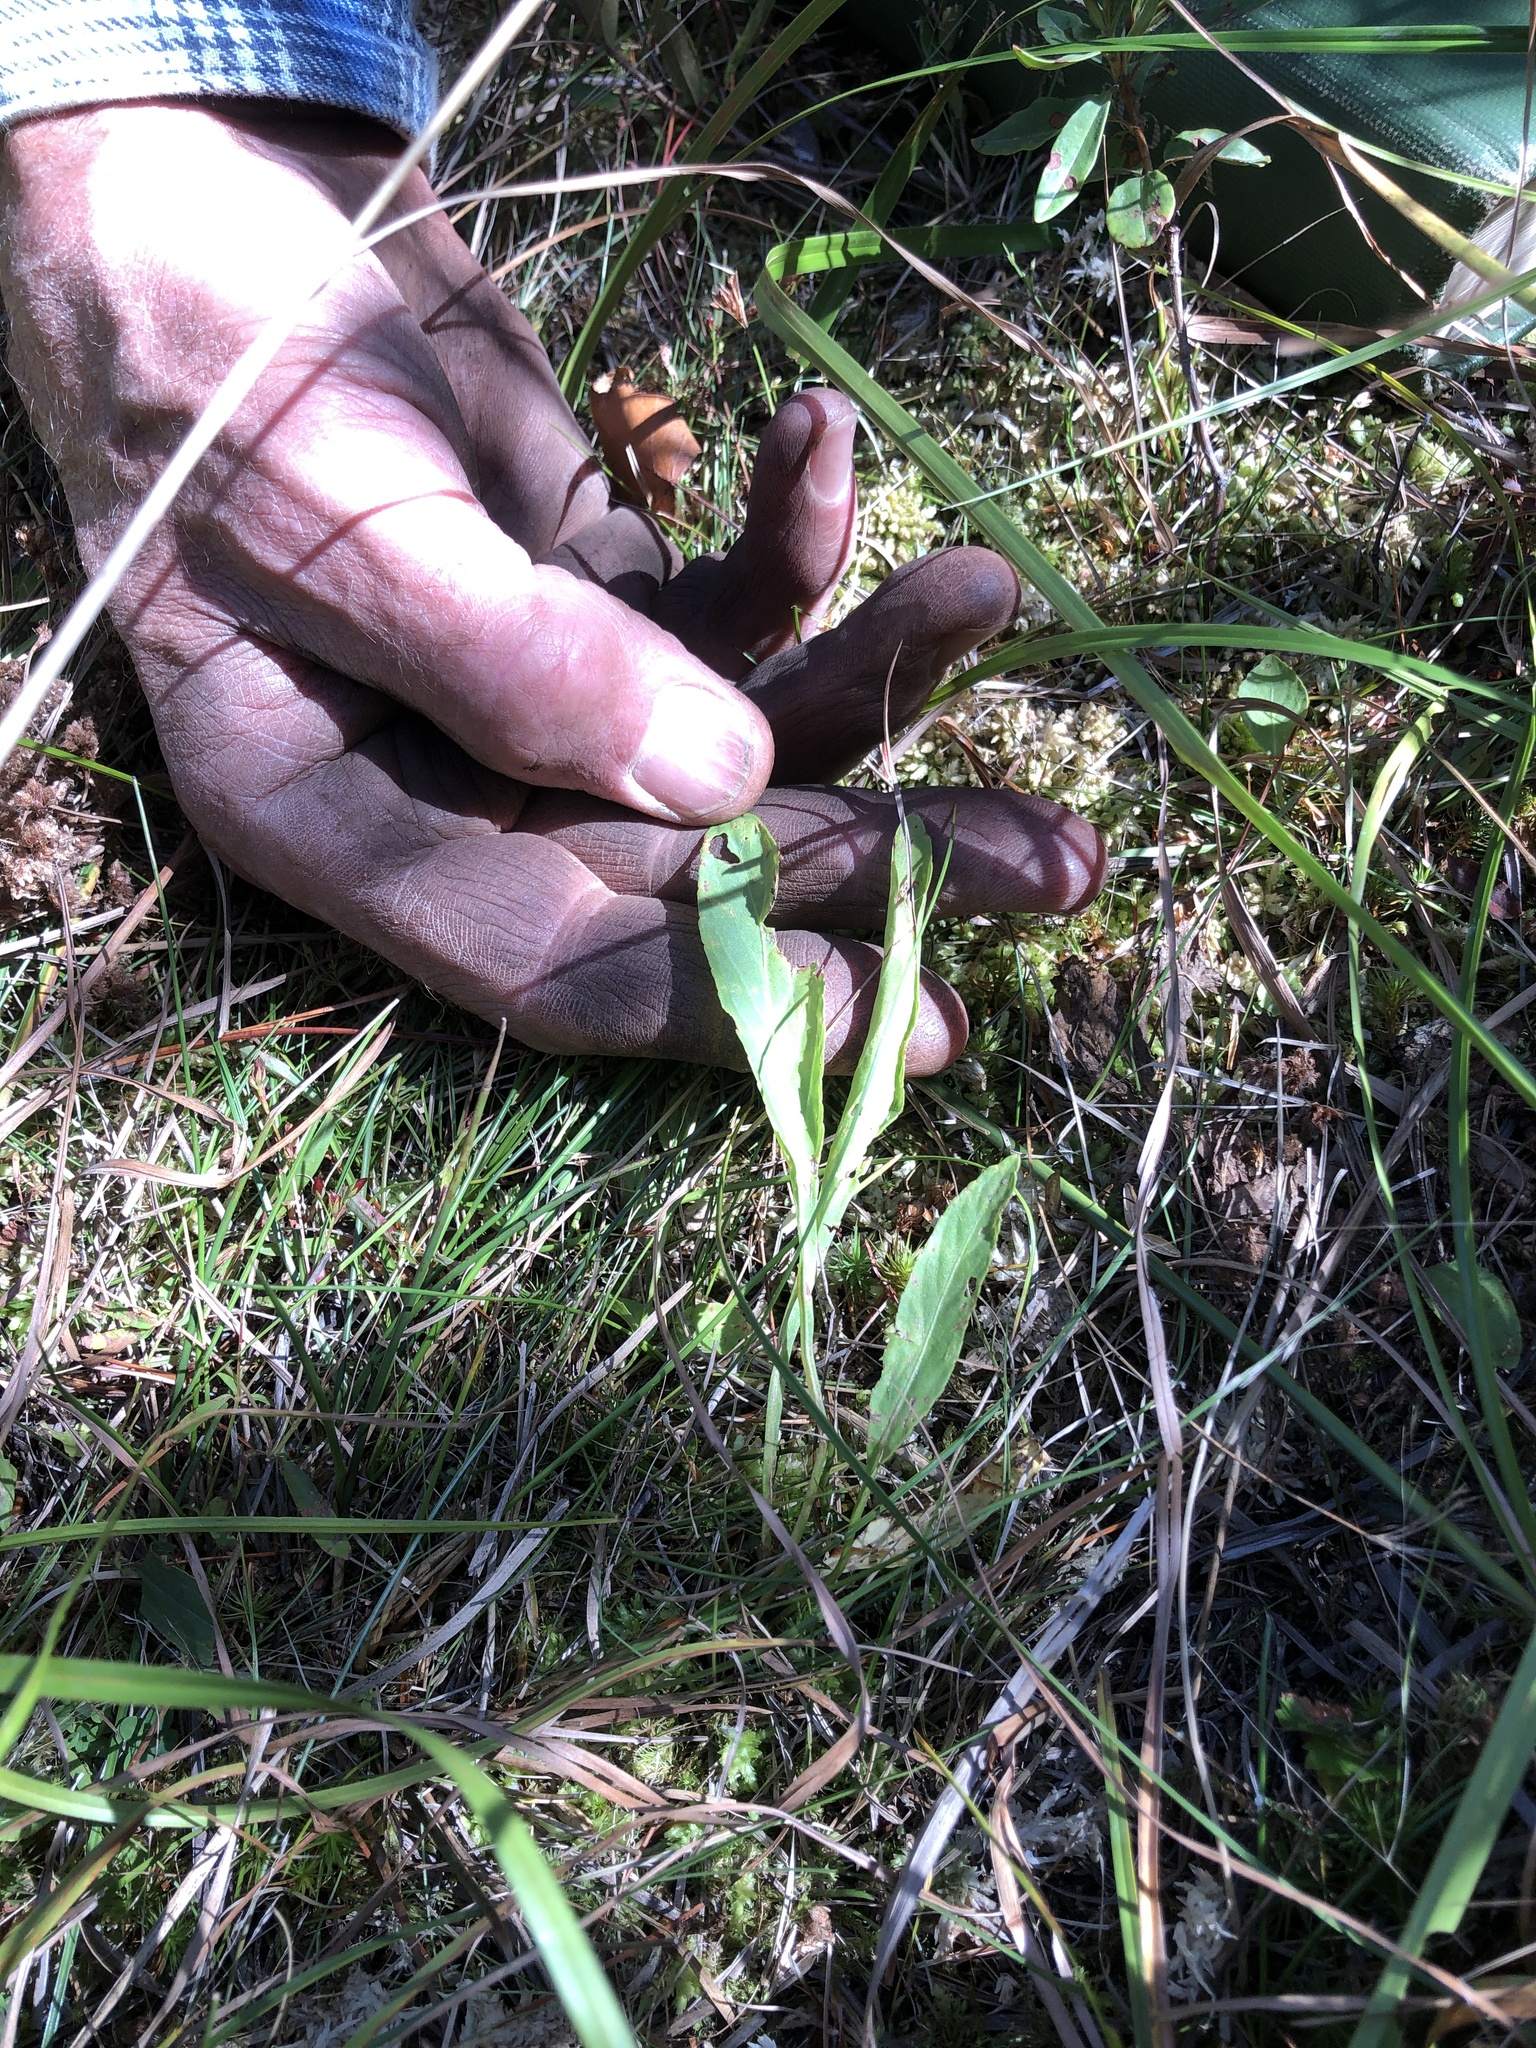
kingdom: Plantae
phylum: Tracheophyta
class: Magnoliopsida
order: Malpighiales
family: Violaceae
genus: Viola
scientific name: Viola lanceolata
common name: Bog white violet
